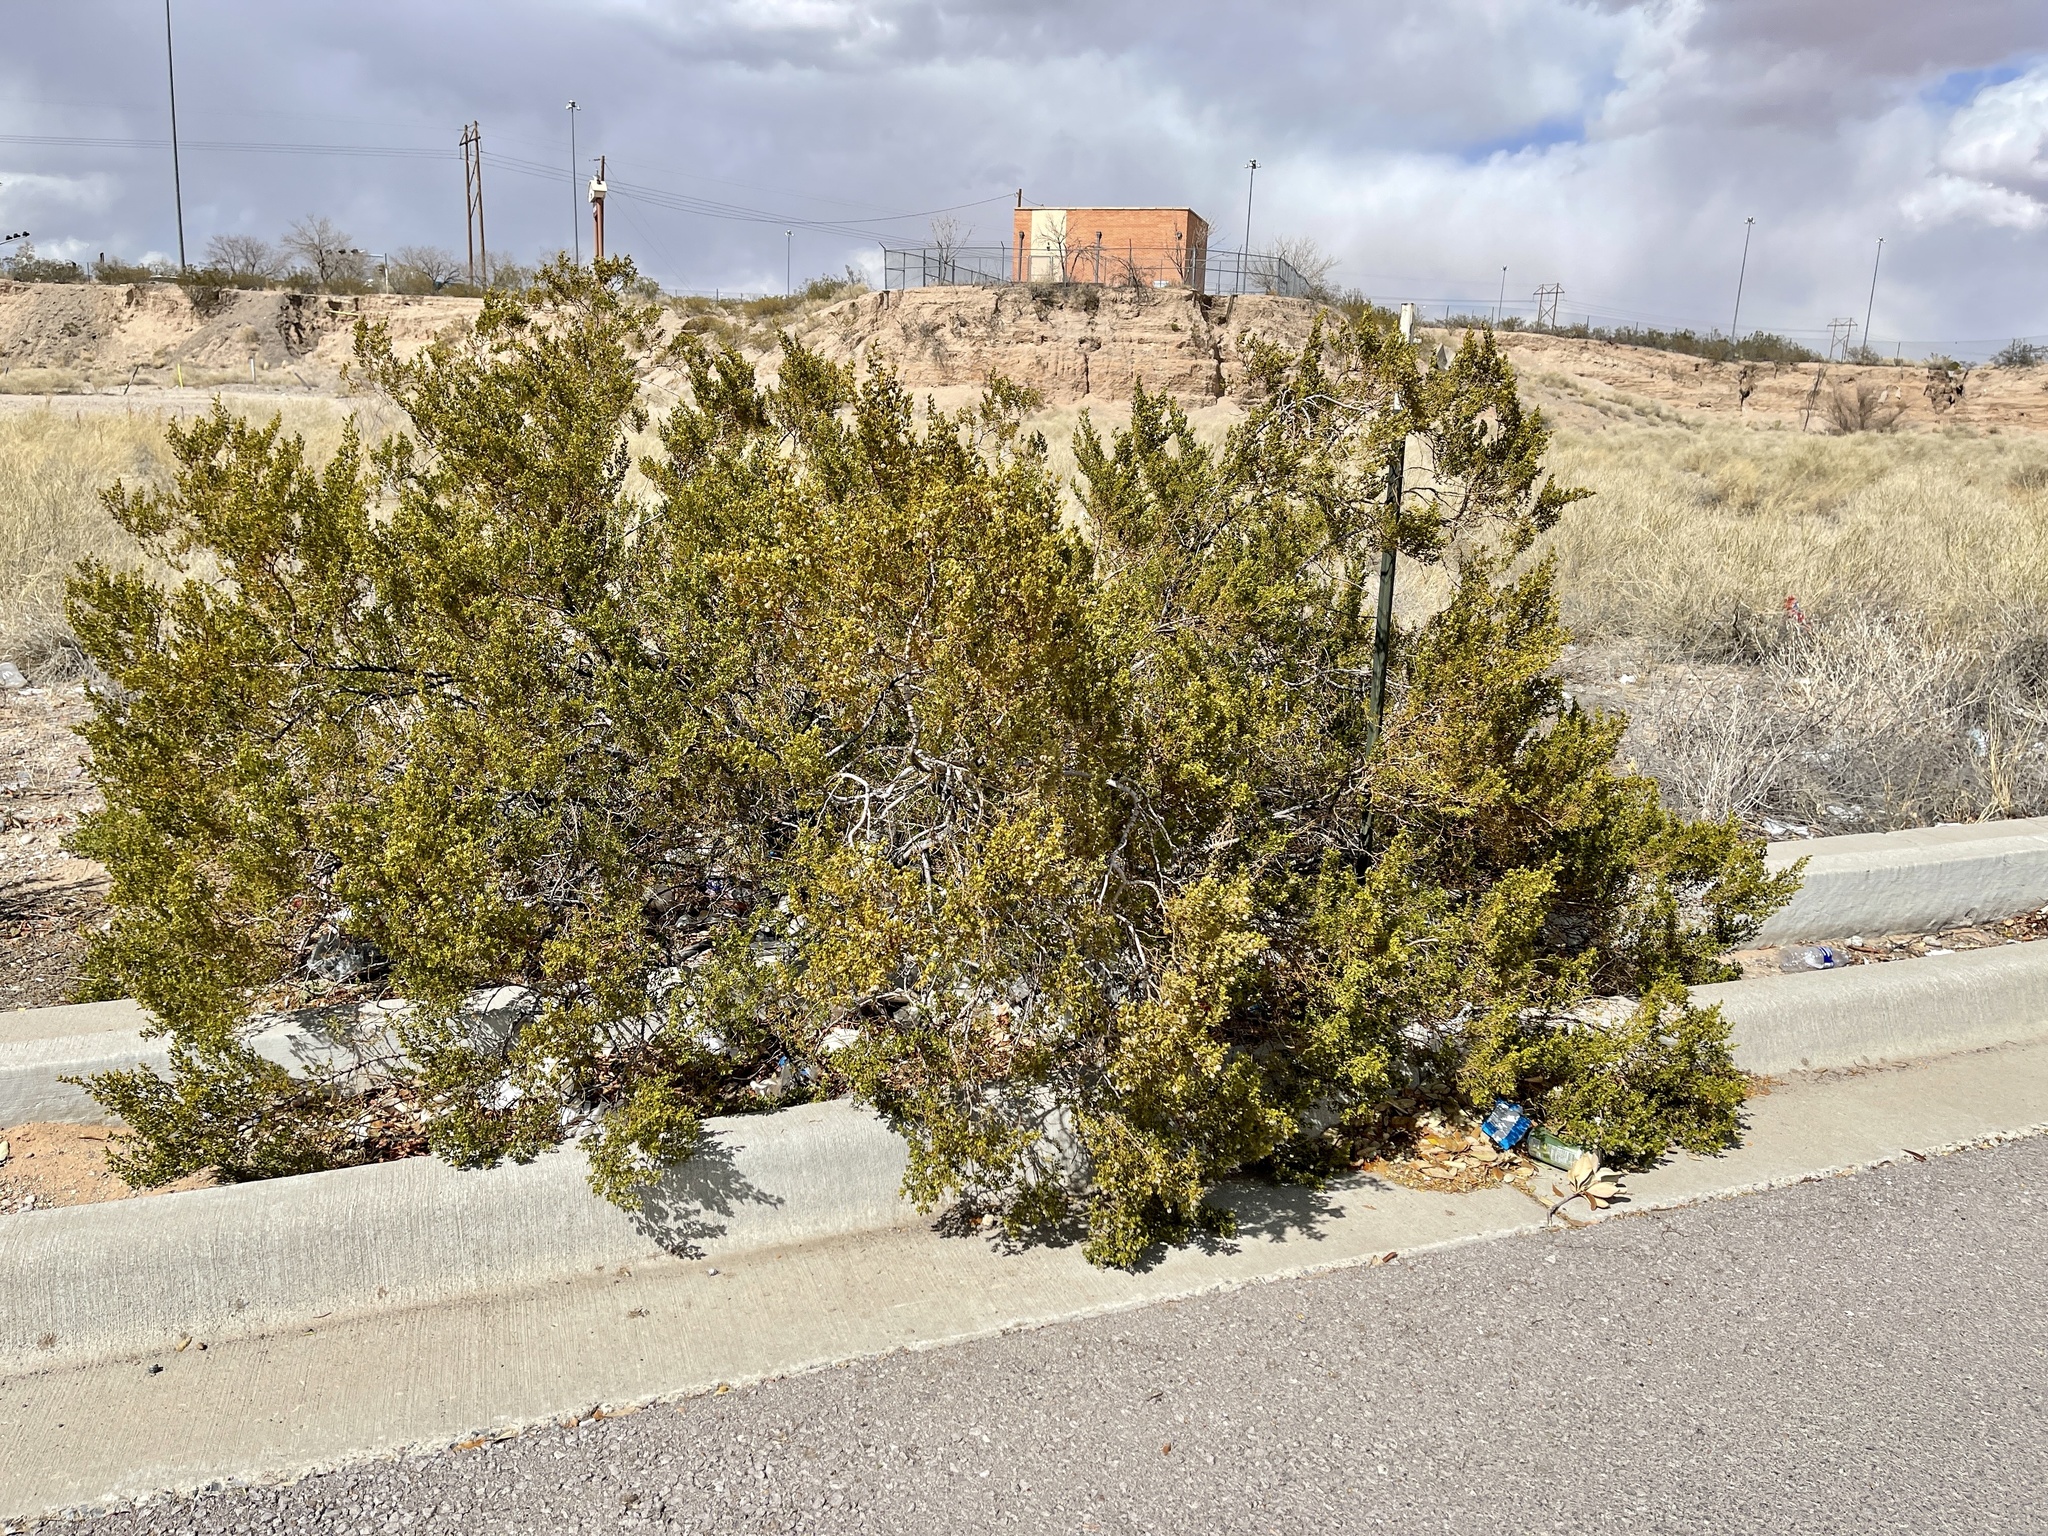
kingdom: Plantae
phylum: Tracheophyta
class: Magnoliopsida
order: Zygophyllales
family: Zygophyllaceae
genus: Larrea
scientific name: Larrea tridentata
